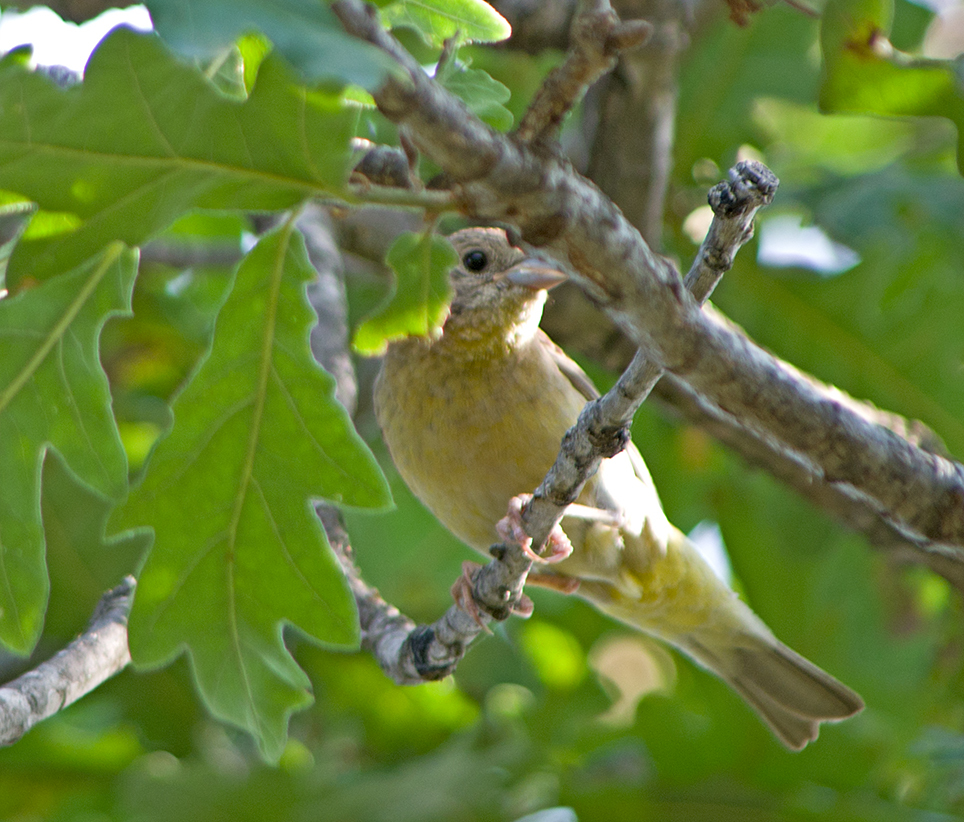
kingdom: Animalia
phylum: Chordata
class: Aves
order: Passeriformes
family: Emberizidae
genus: Emberiza
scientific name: Emberiza melanocephala
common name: Black-headed bunting
